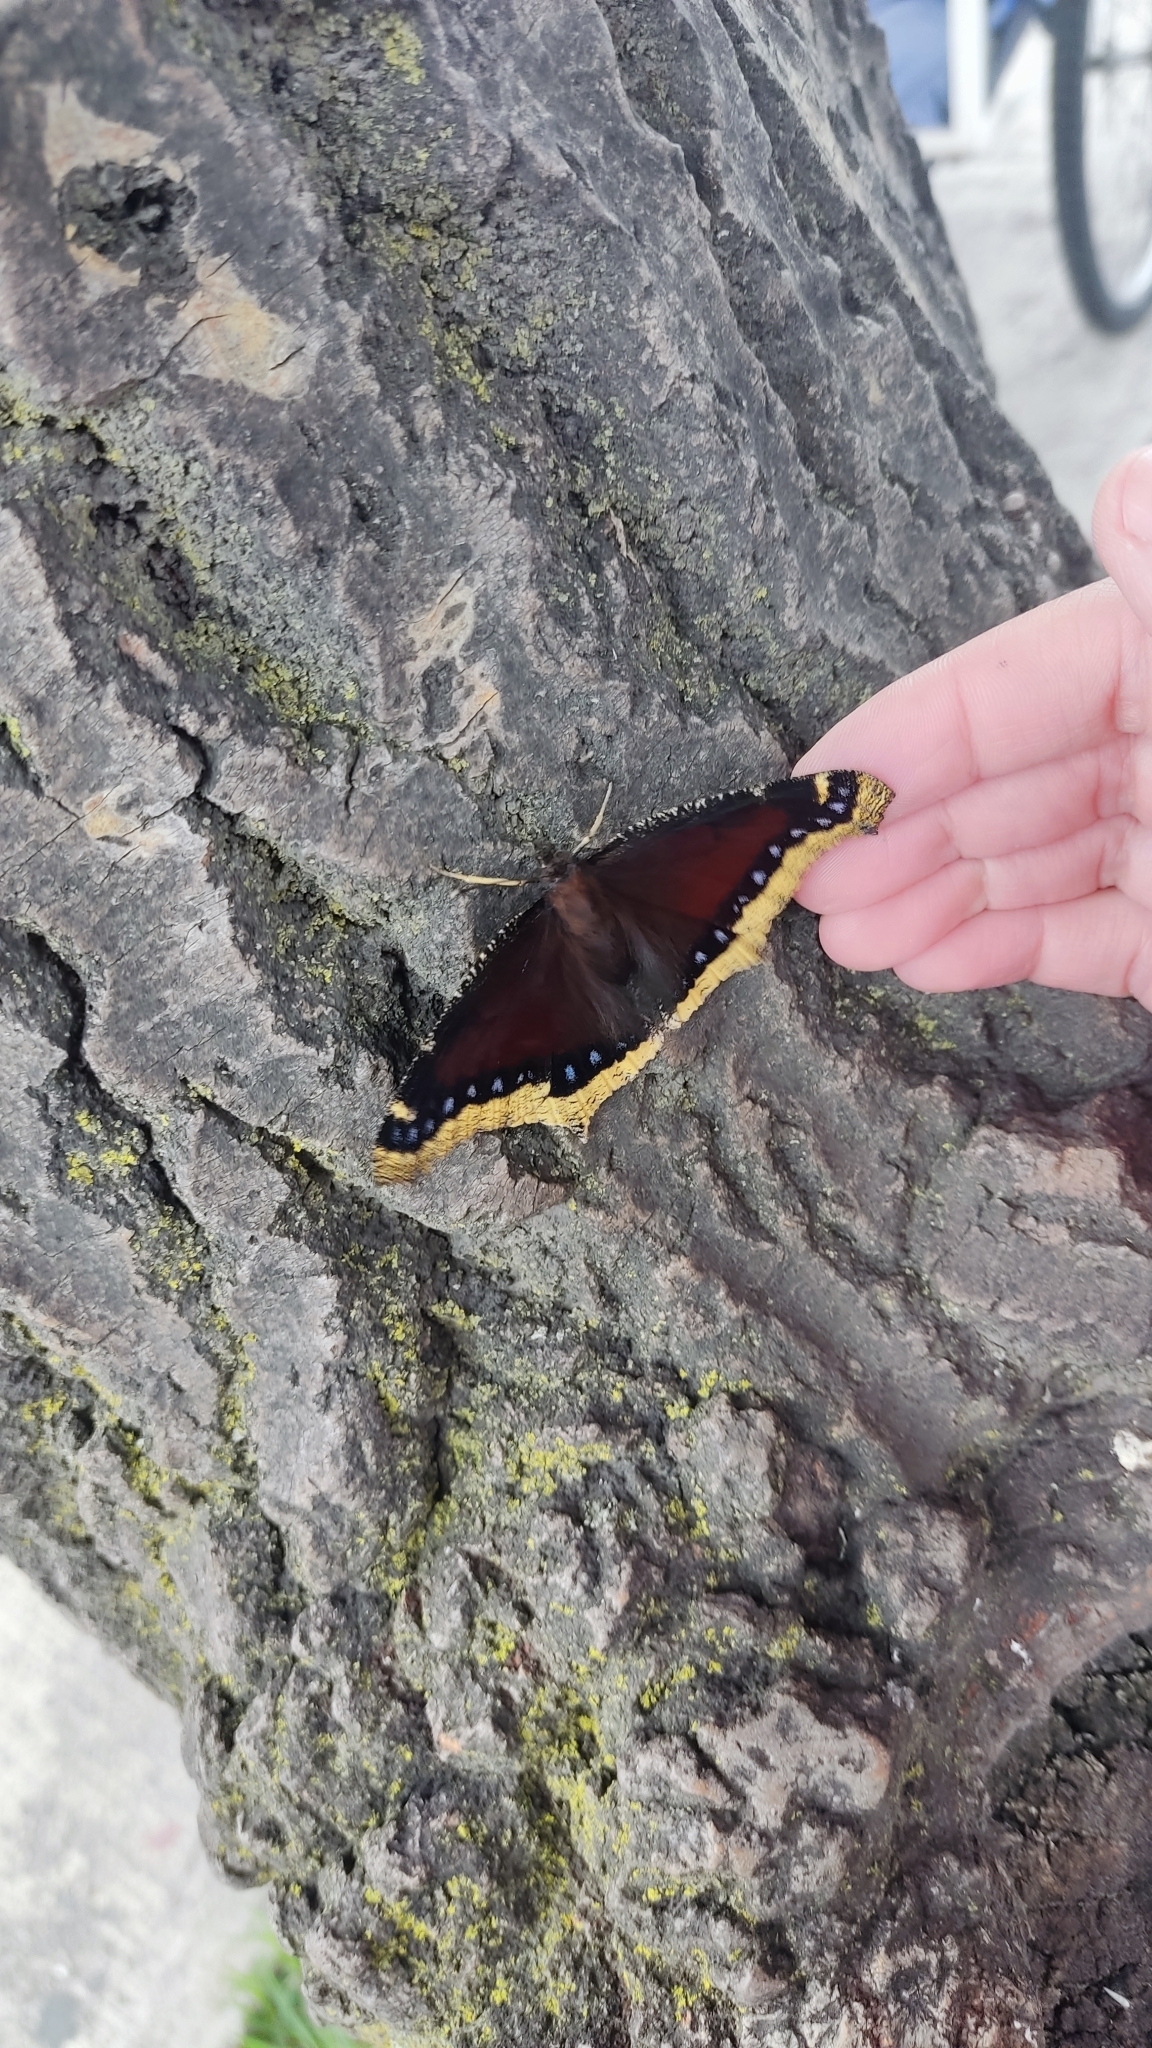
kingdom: Animalia
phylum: Arthropoda
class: Insecta
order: Lepidoptera
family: Nymphalidae
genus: Nymphalis
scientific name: Nymphalis antiopa
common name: Camberwell beauty
